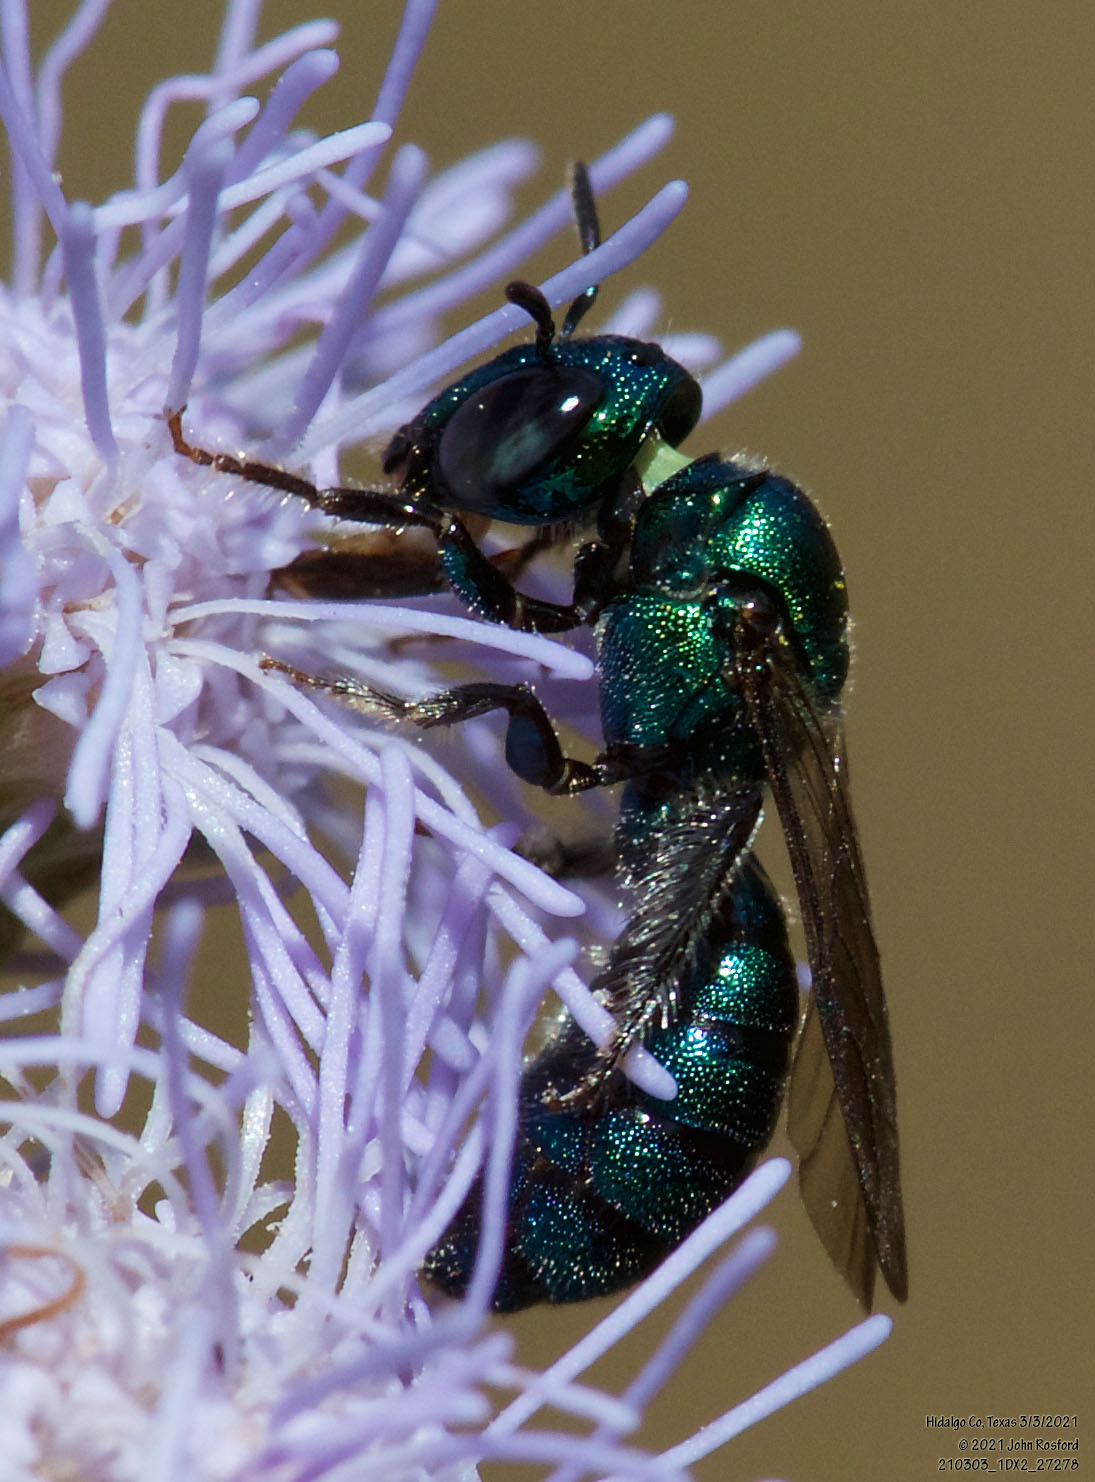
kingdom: Animalia
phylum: Arthropoda
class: Insecta
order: Hymenoptera
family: Apidae
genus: Ceratina
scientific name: Ceratina cobaltina
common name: Small carpenter bee
